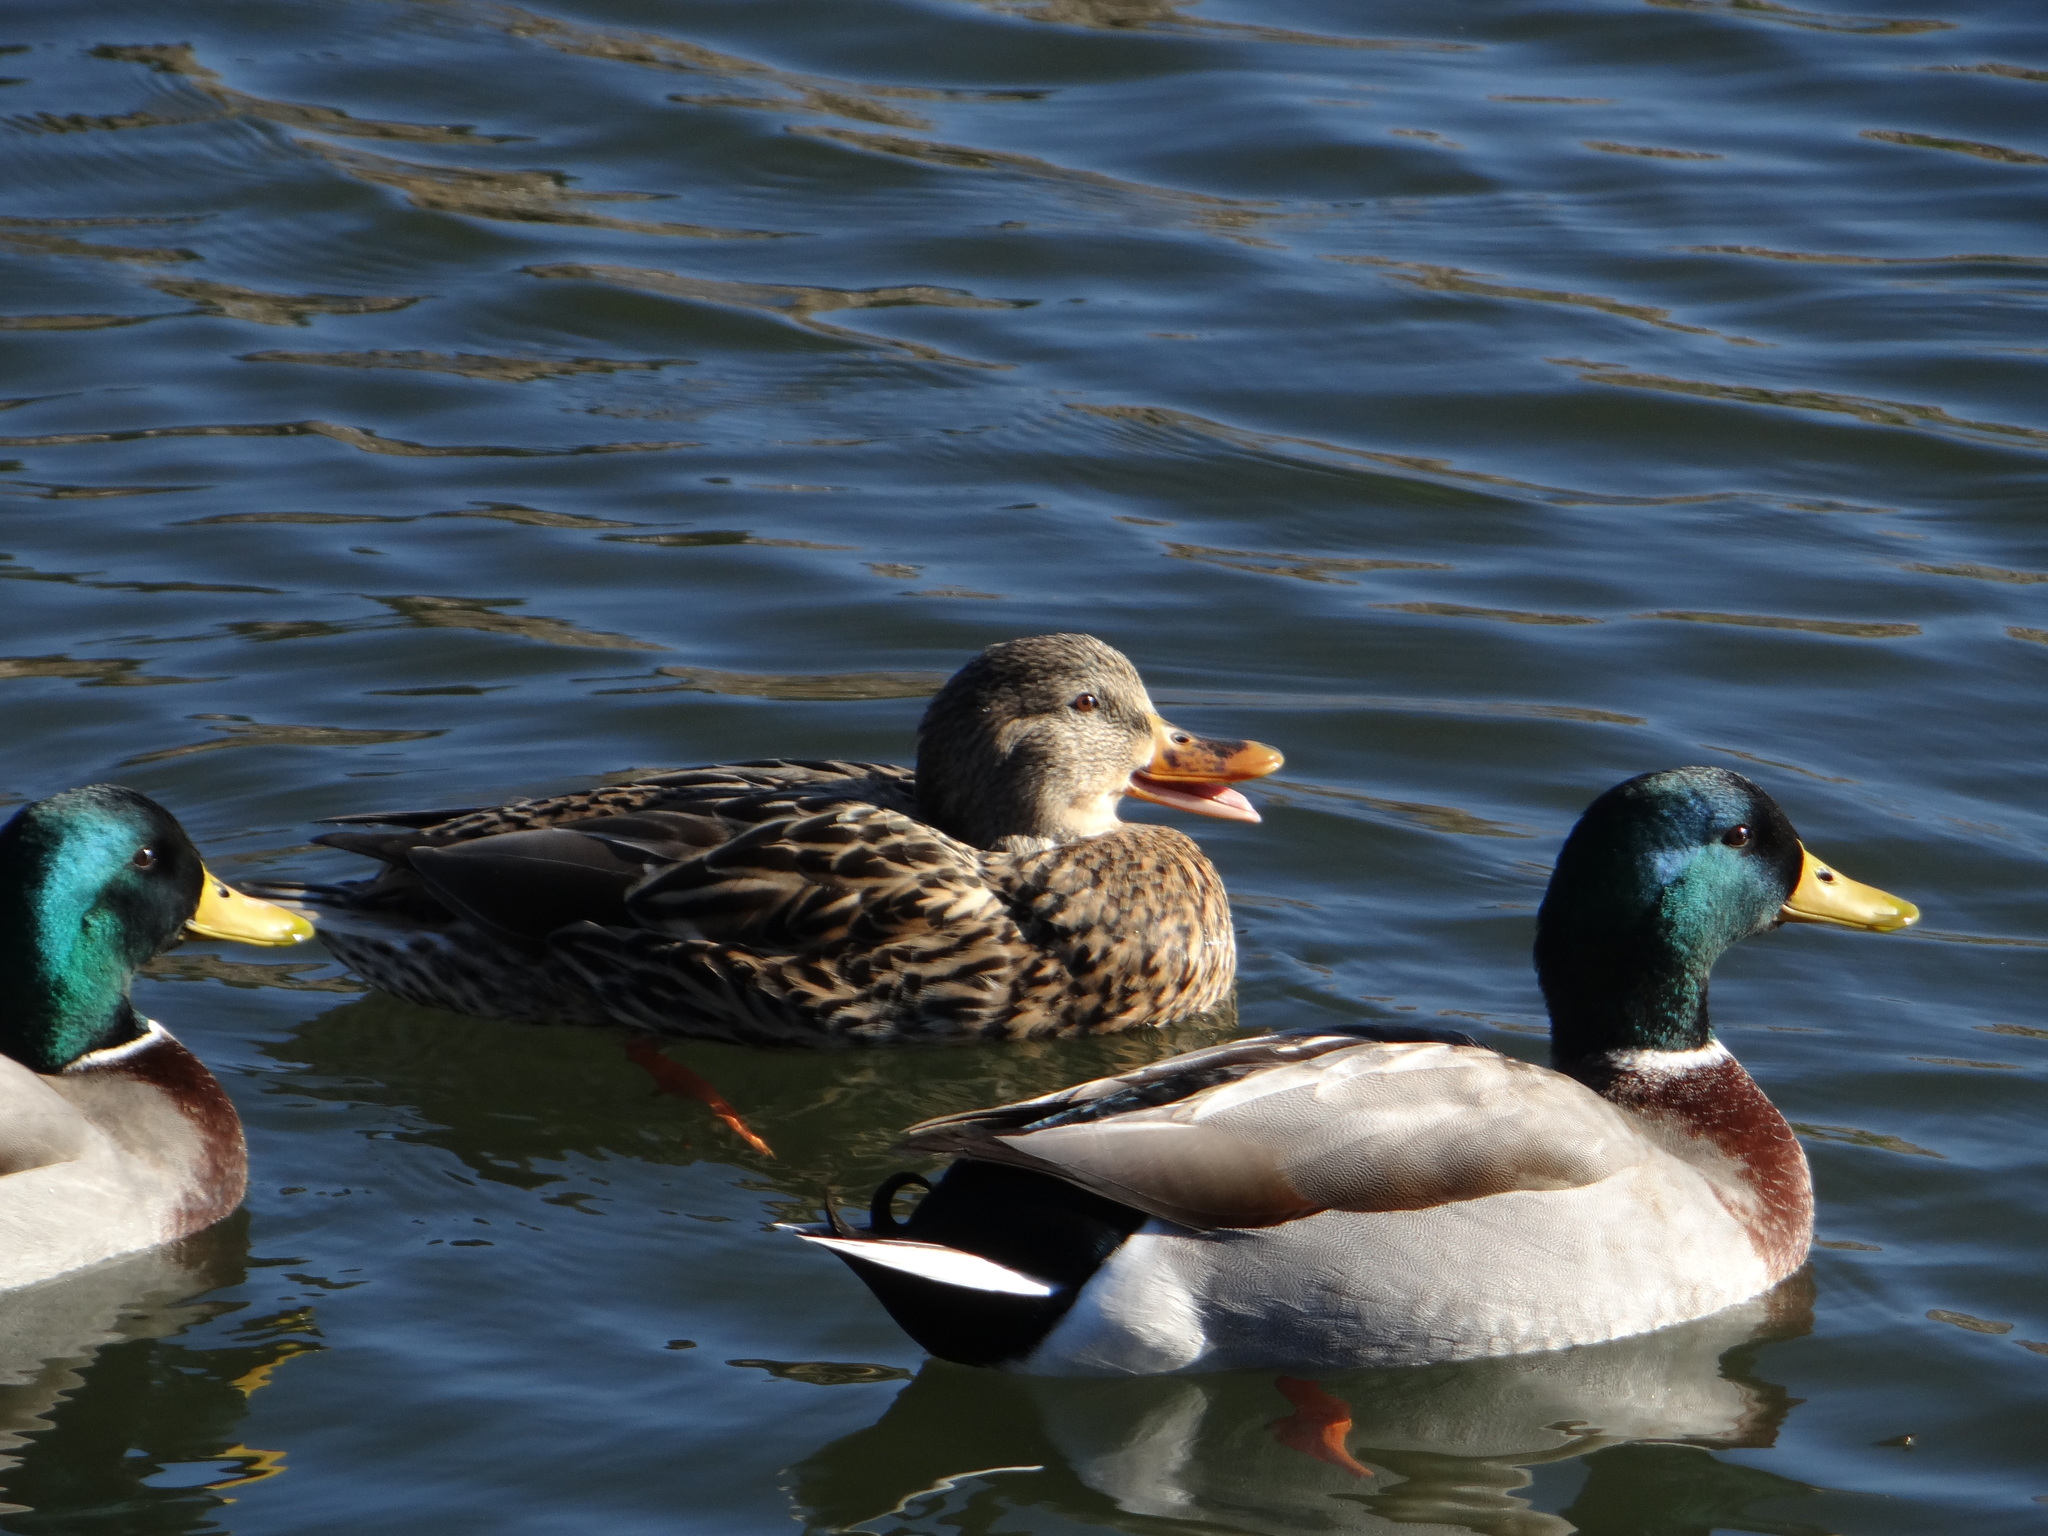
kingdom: Animalia
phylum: Chordata
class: Aves
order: Anseriformes
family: Anatidae
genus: Anas
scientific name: Anas platyrhynchos
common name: Mallard
